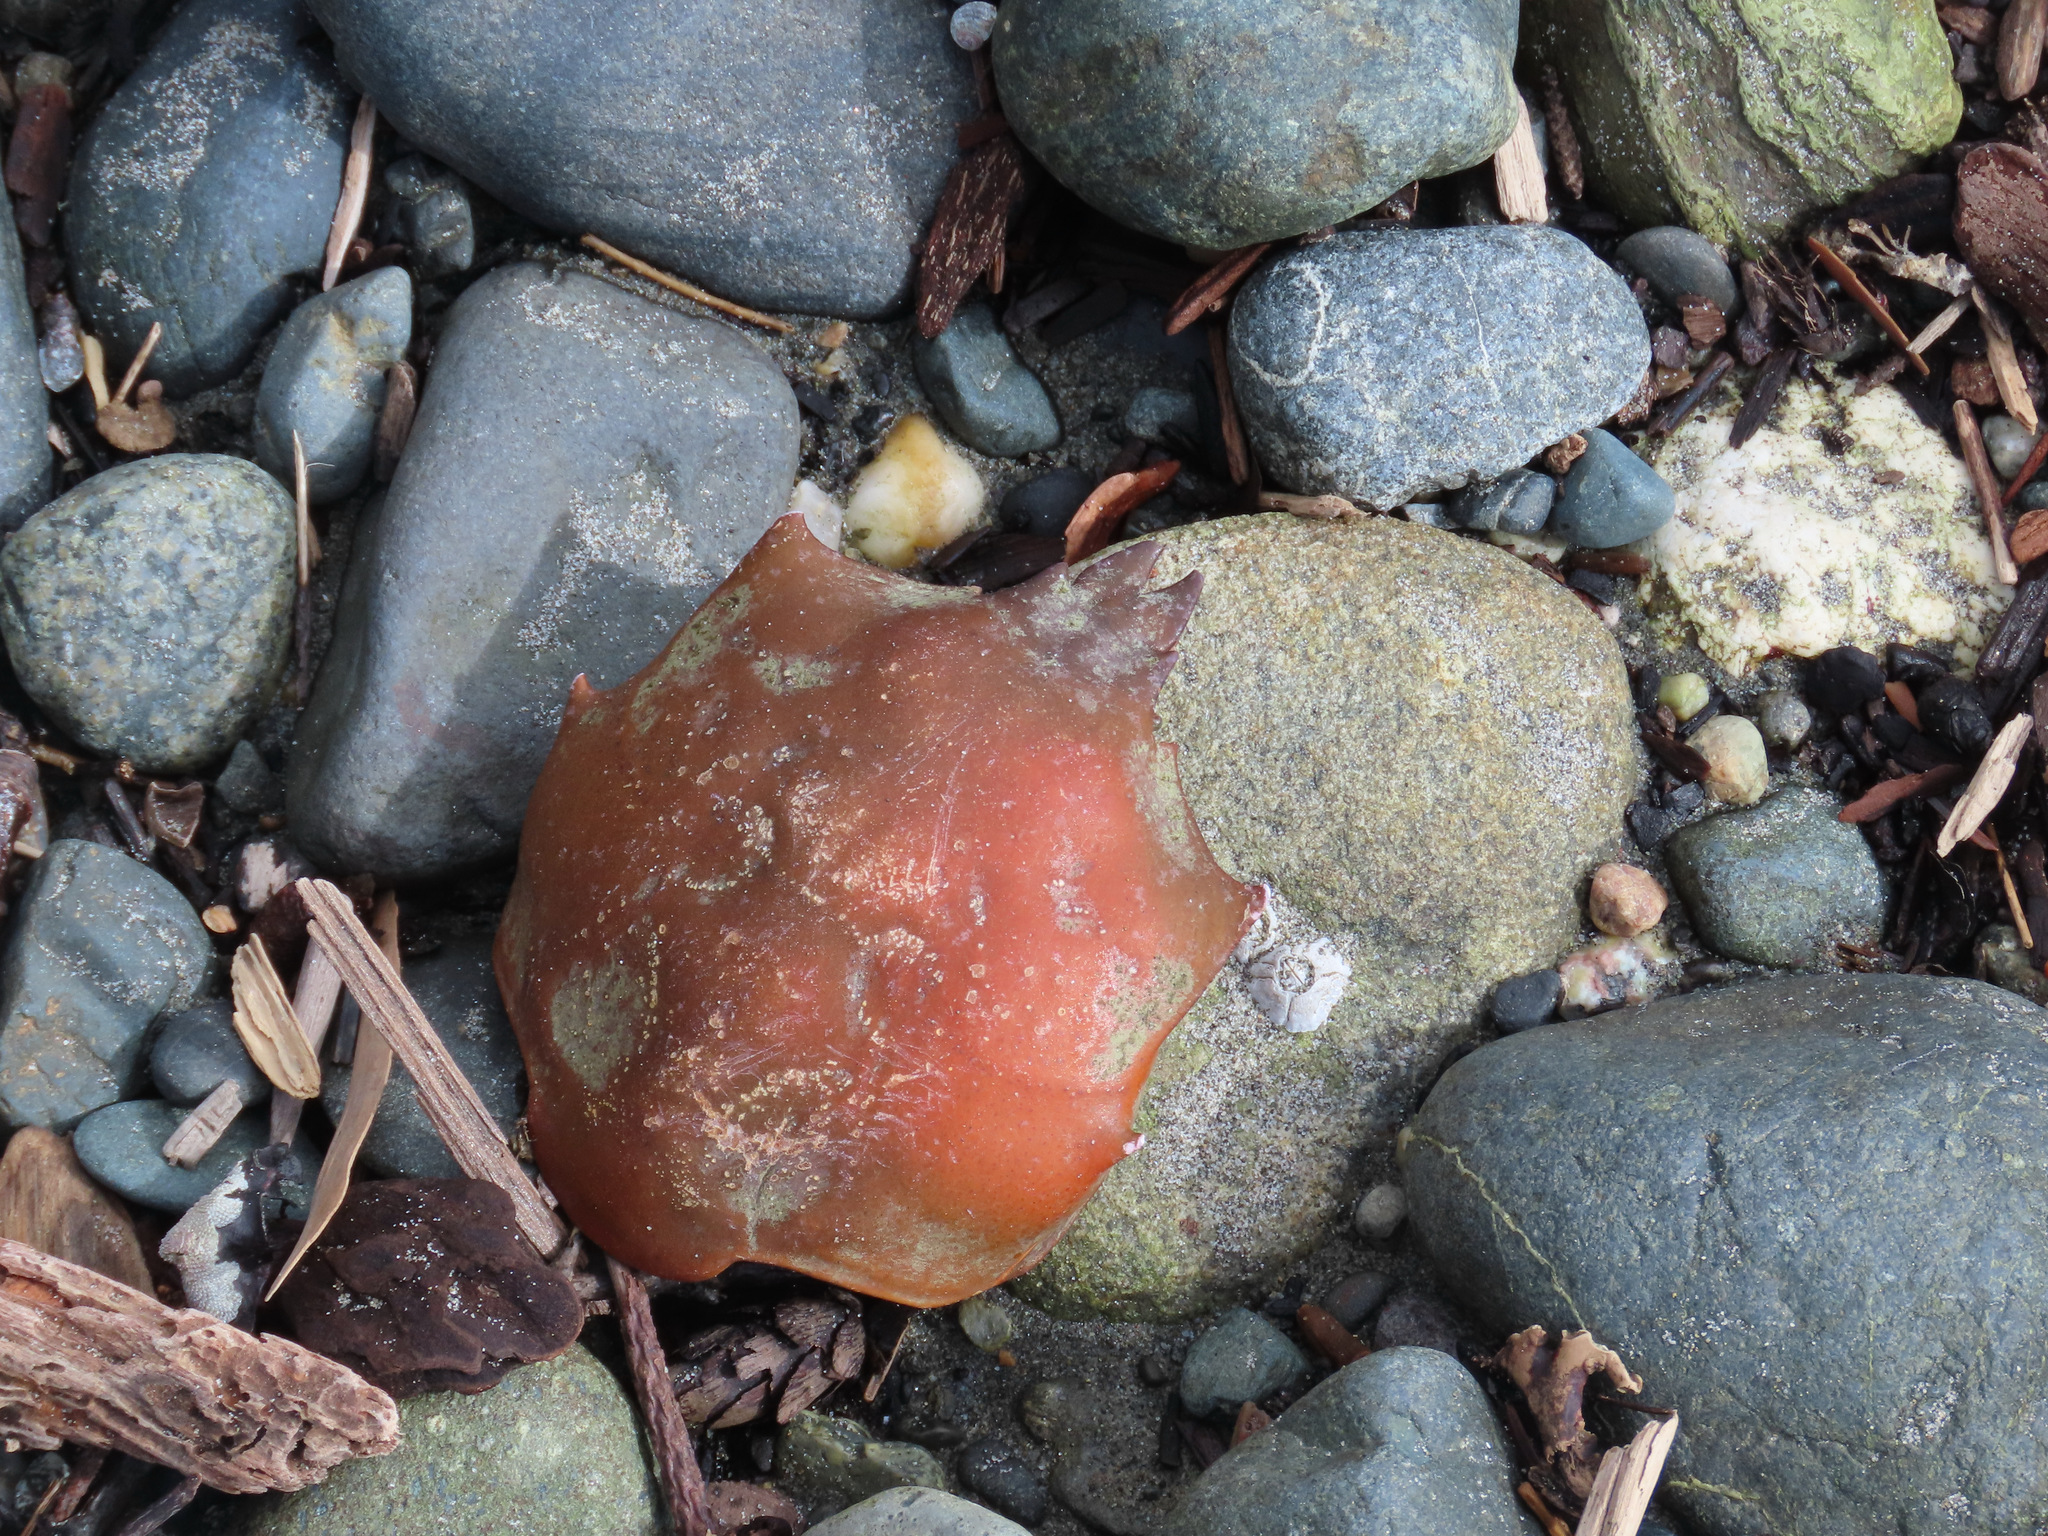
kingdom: Animalia
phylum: Arthropoda
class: Malacostraca
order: Decapoda
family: Epialtidae
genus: Pugettia
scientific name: Pugettia producta
